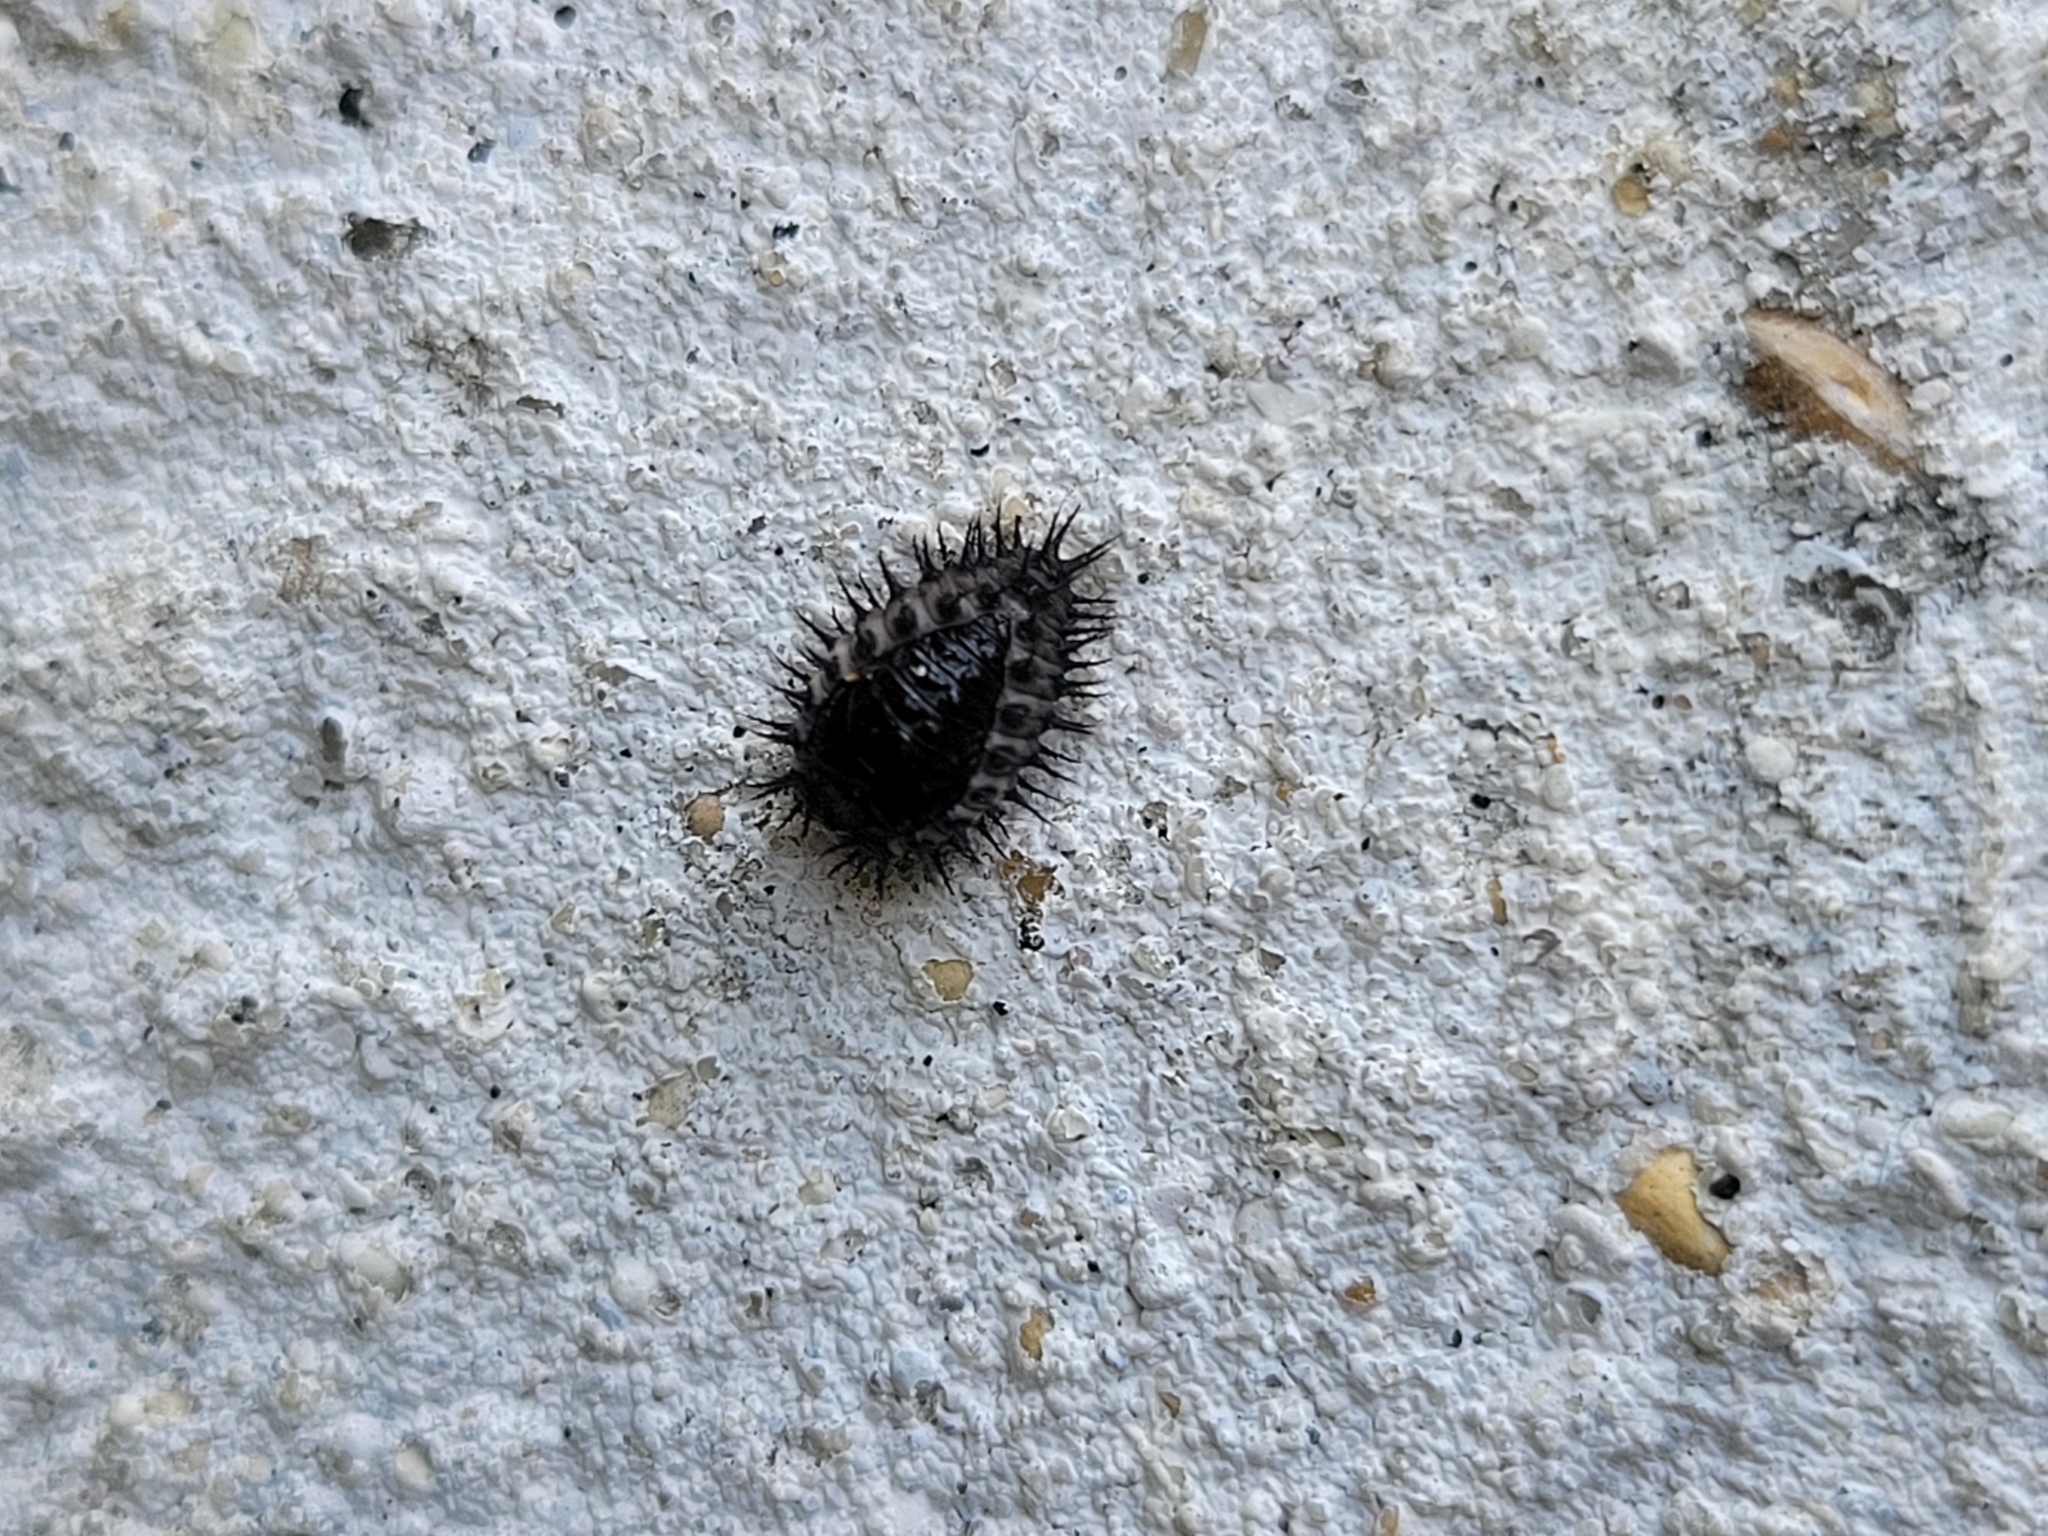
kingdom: Animalia
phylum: Arthropoda
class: Insecta
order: Coleoptera
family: Coccinellidae
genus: Chilocorus
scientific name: Chilocorus renipustulatus
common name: Kidney-spot ladybird
